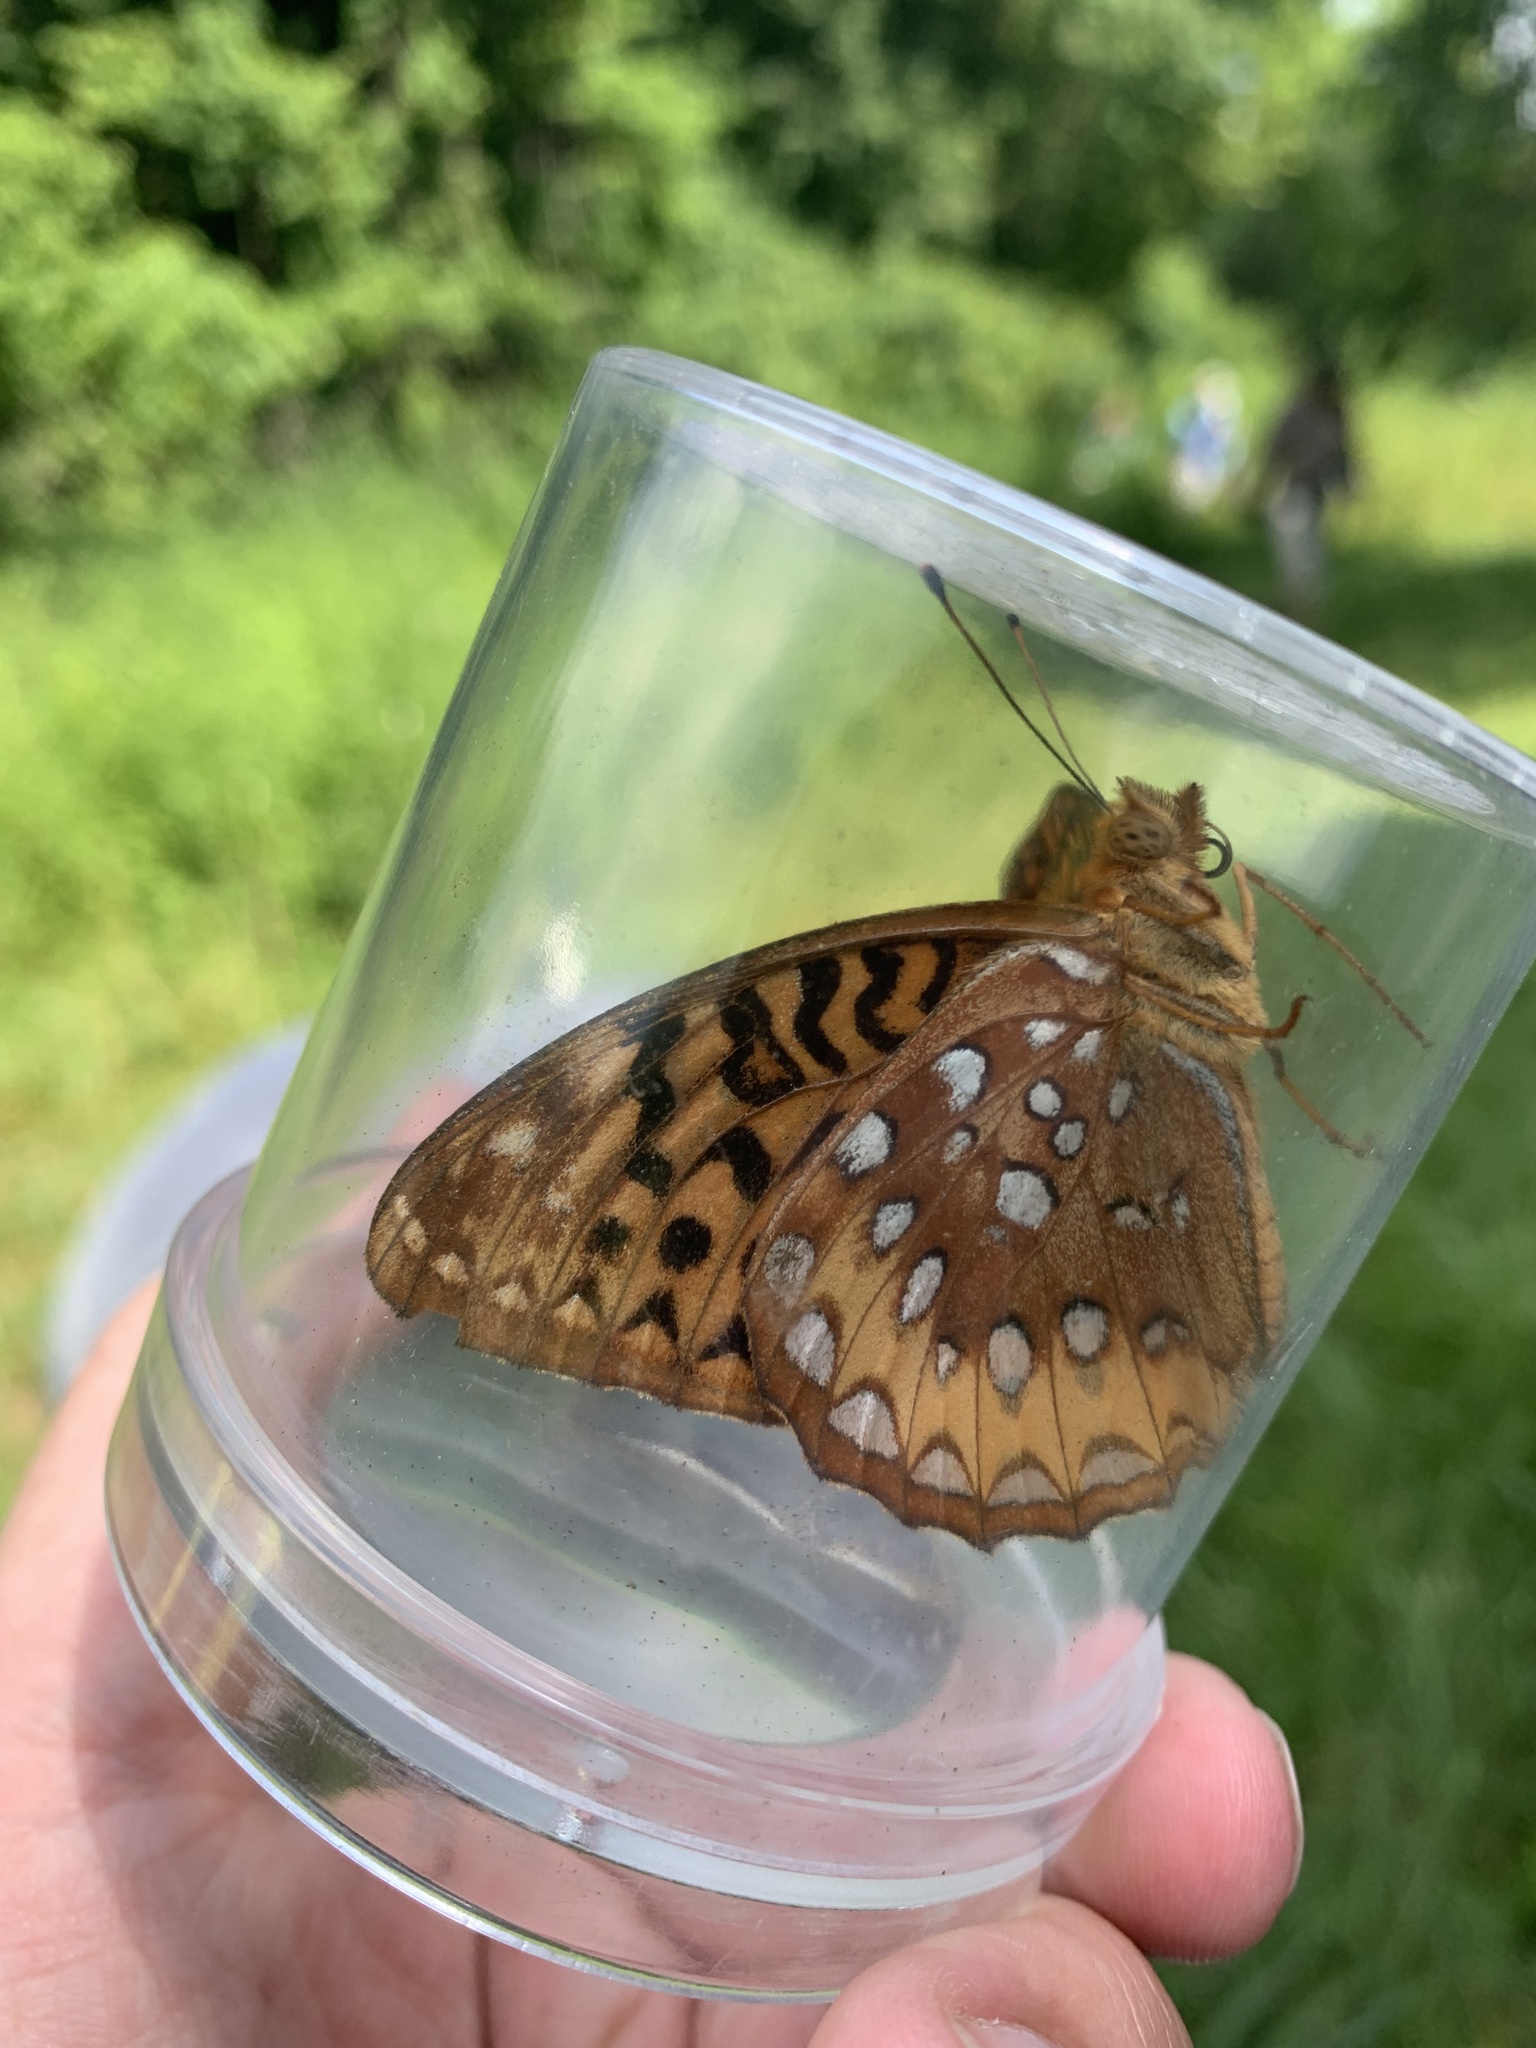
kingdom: Animalia
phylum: Arthropoda
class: Insecta
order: Lepidoptera
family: Nymphalidae
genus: Speyeria
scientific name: Speyeria cybele
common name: Great spangled fritillary
